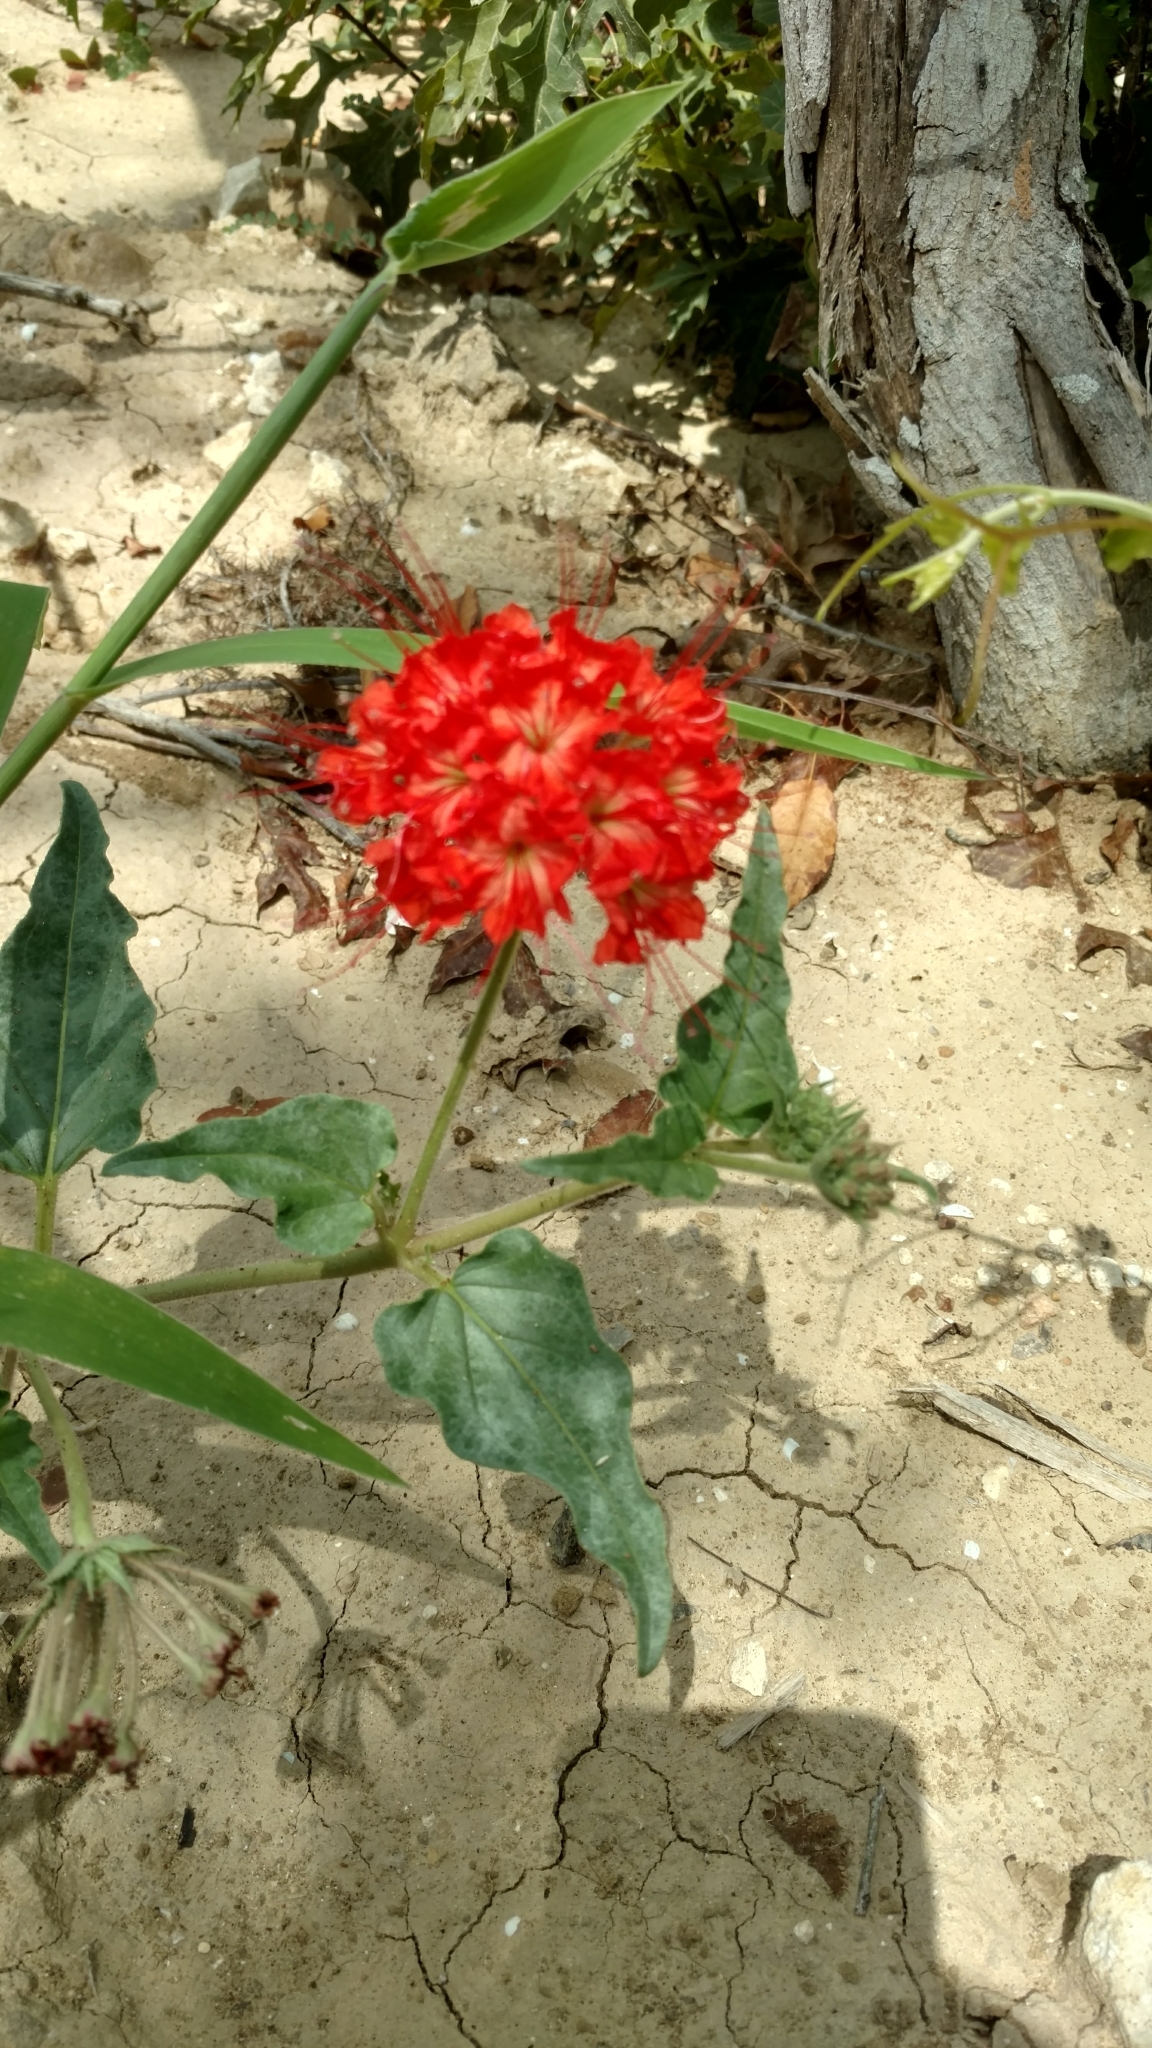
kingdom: Plantae
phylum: Tracheophyta
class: Magnoliopsida
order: Caryophyllales
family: Nyctaginaceae
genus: Nyctaginia
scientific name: Nyctaginia capitata
